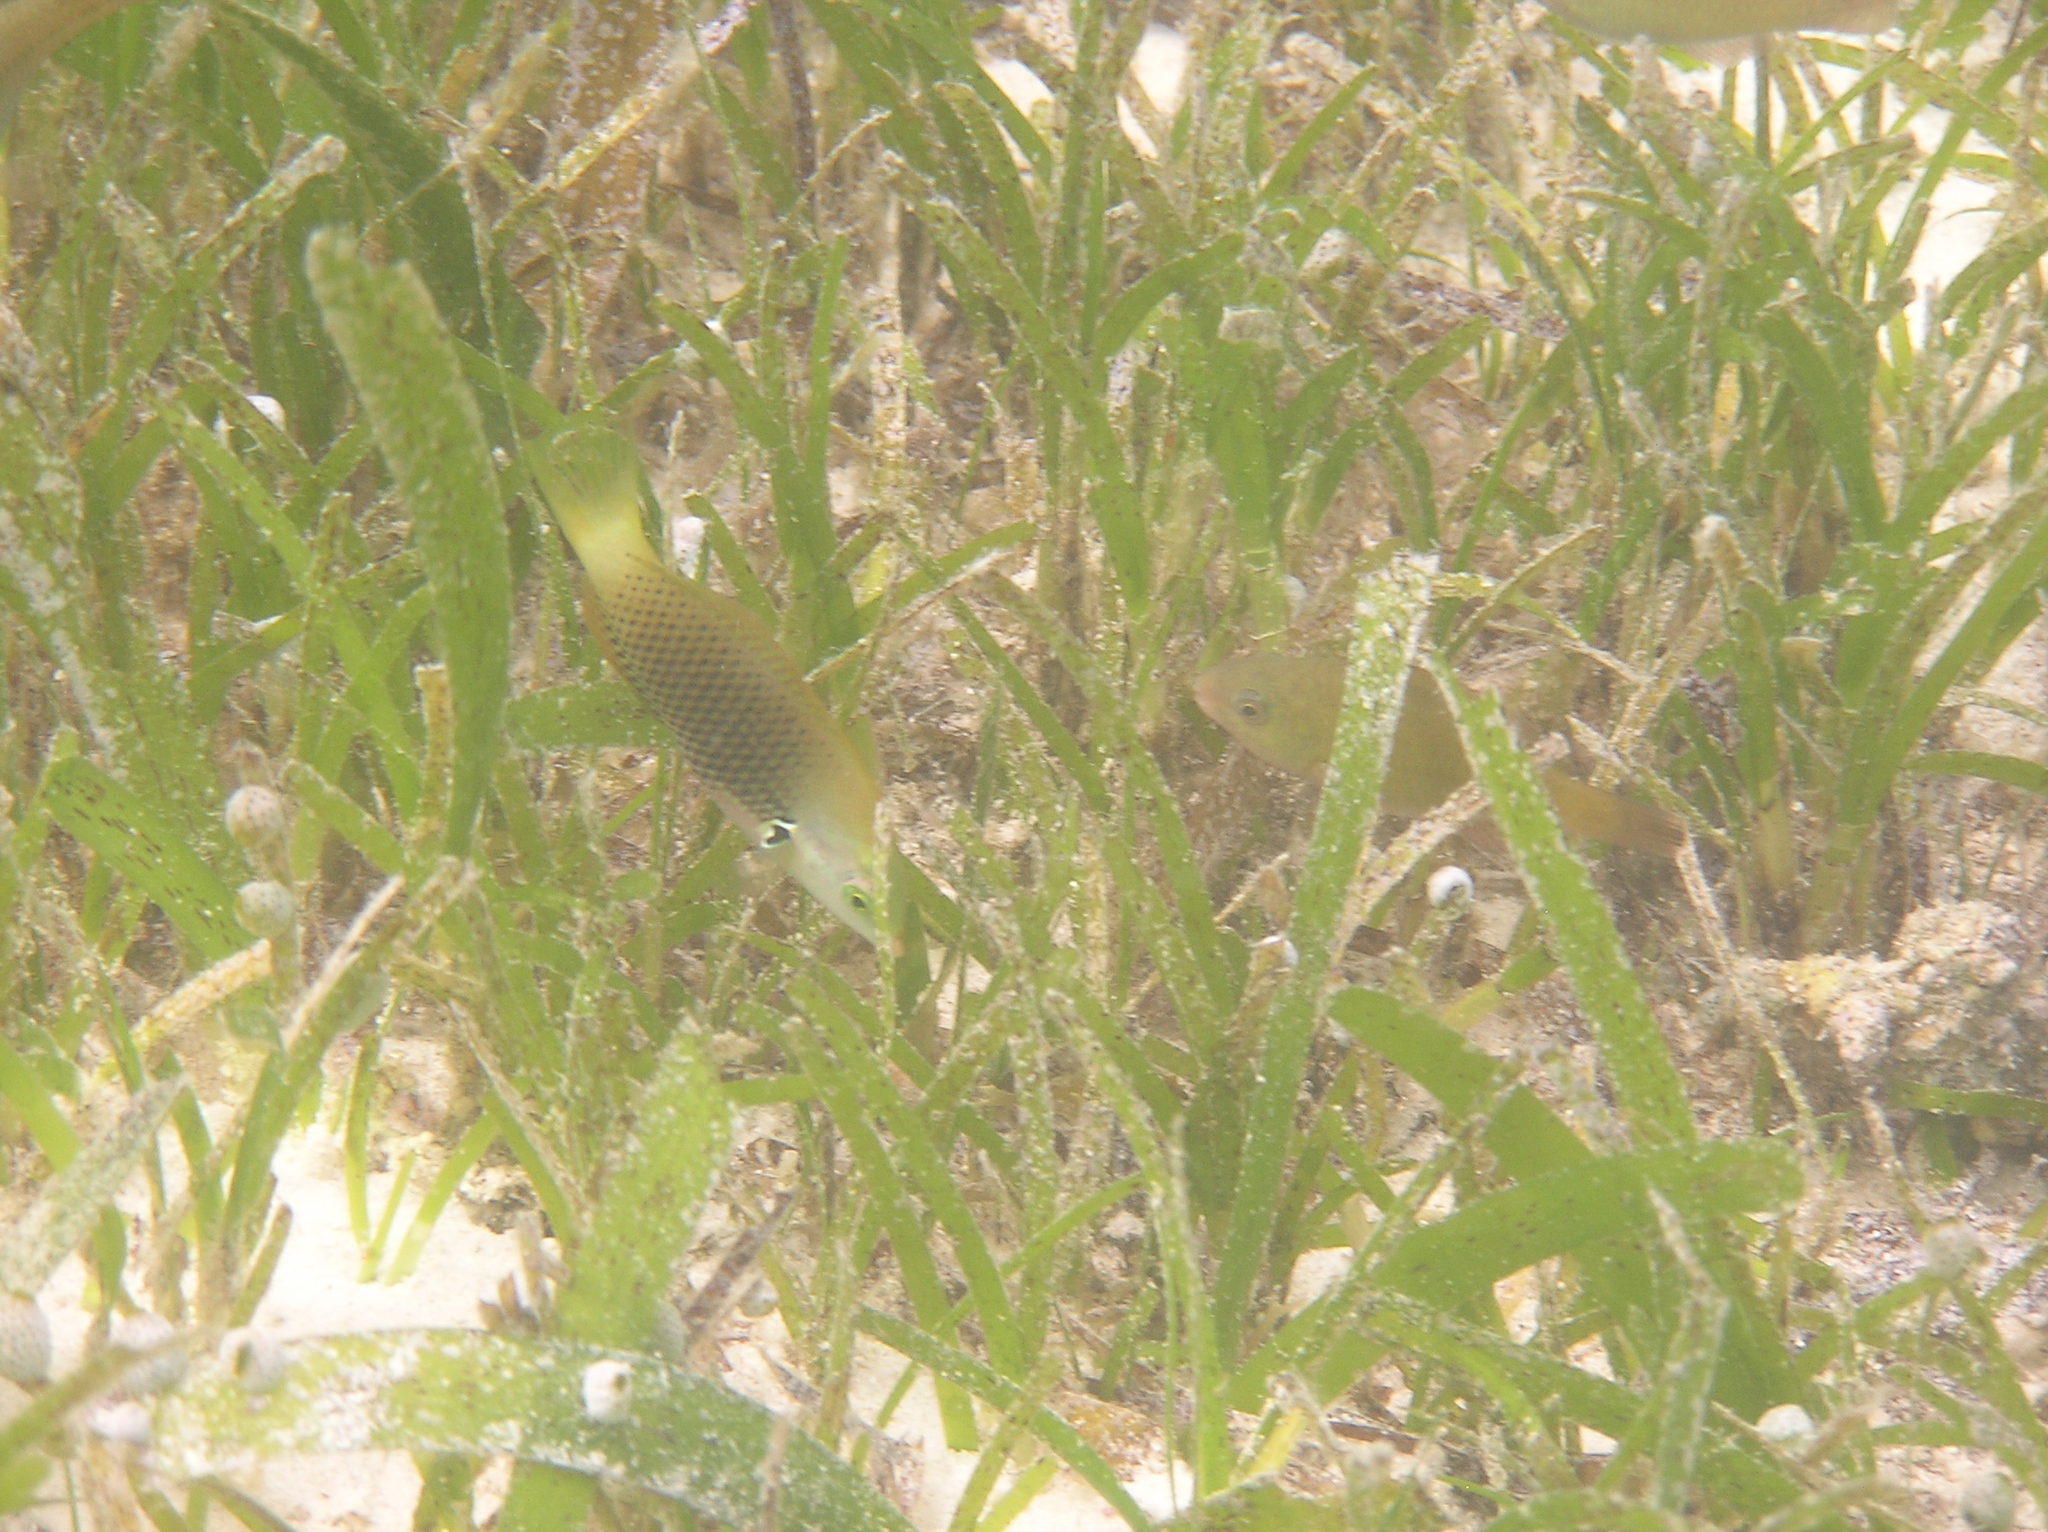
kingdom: Animalia
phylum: Chordata
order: Perciformes
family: Labridae
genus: Halichoeres
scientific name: Halichoeres podostigma
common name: Axil spot wrasse
